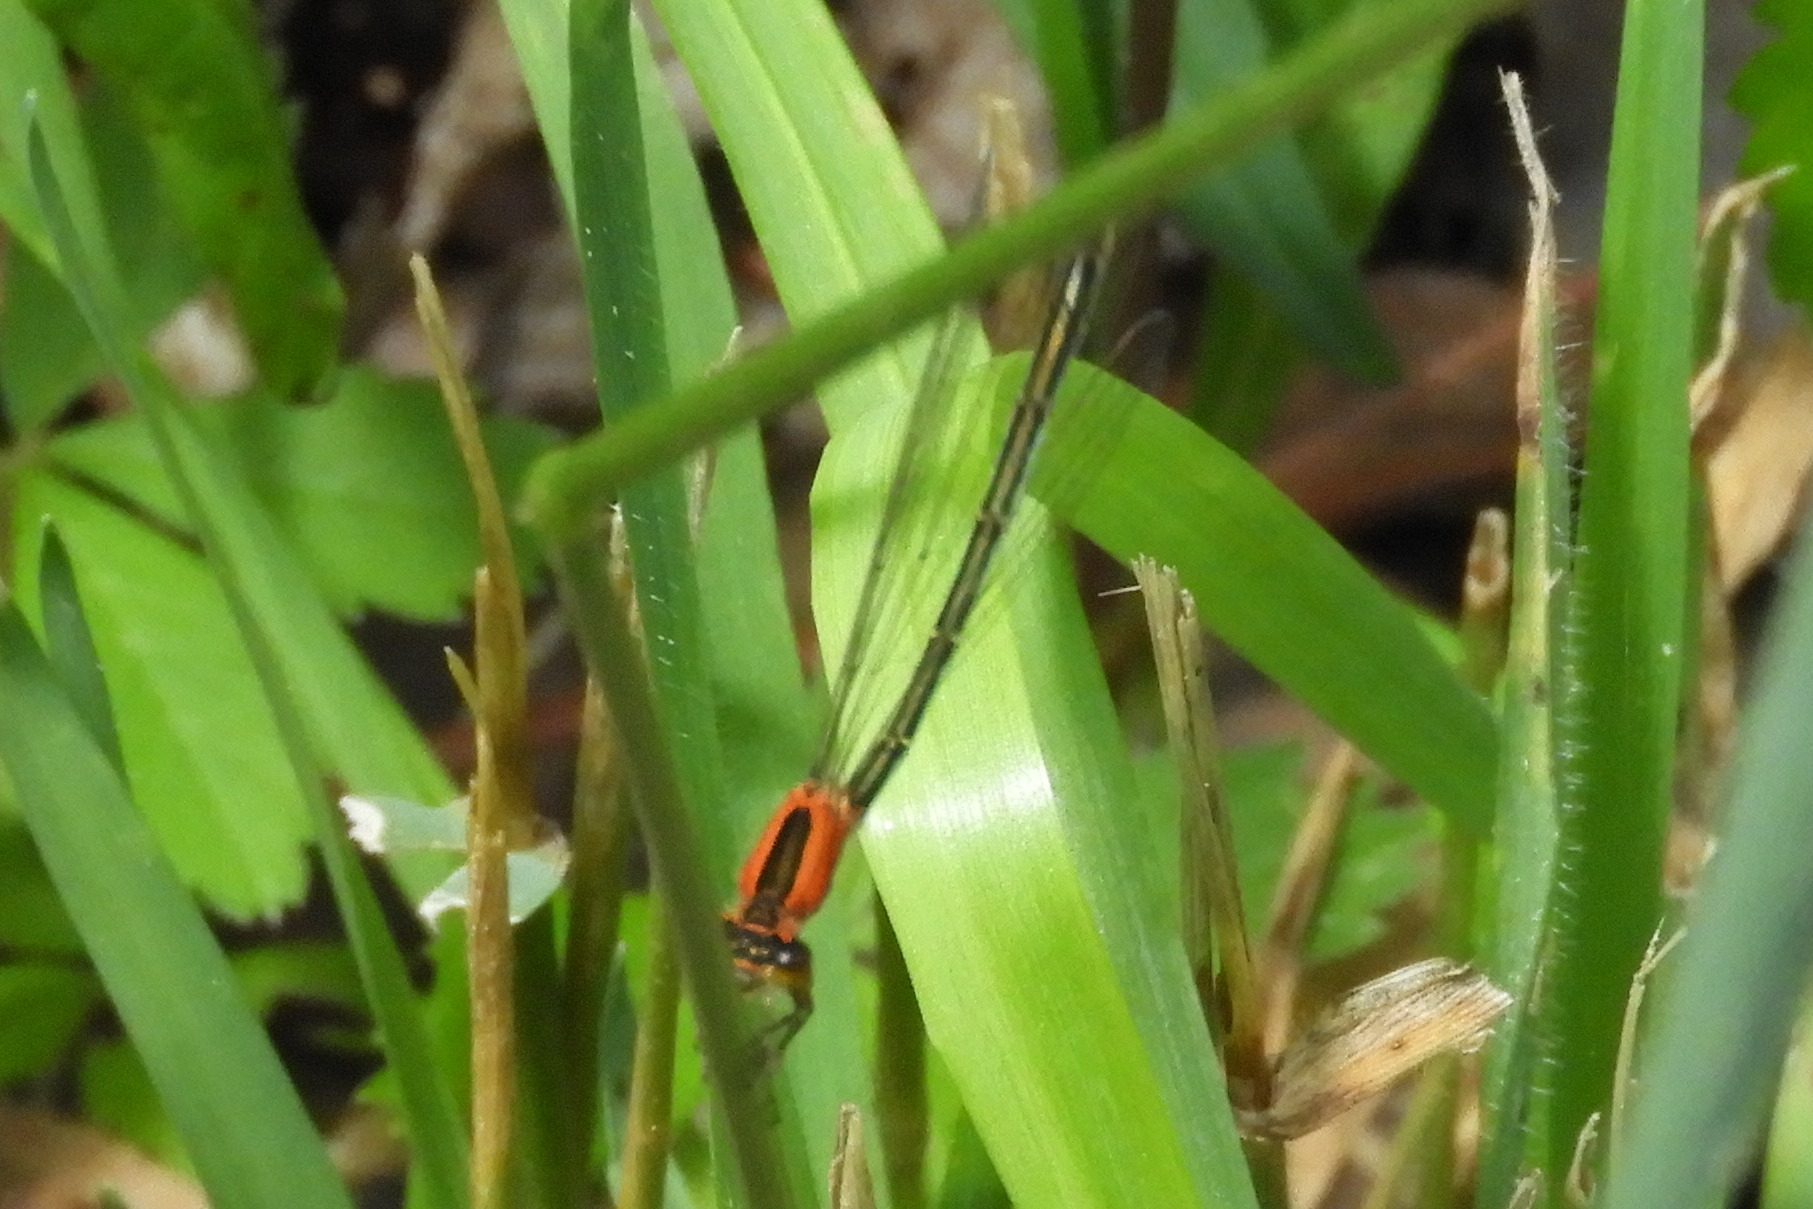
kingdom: Animalia
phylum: Arthropoda
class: Insecta
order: Odonata
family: Coenagrionidae
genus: Ischnura
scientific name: Ischnura ramburii
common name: Rambur's forktail
